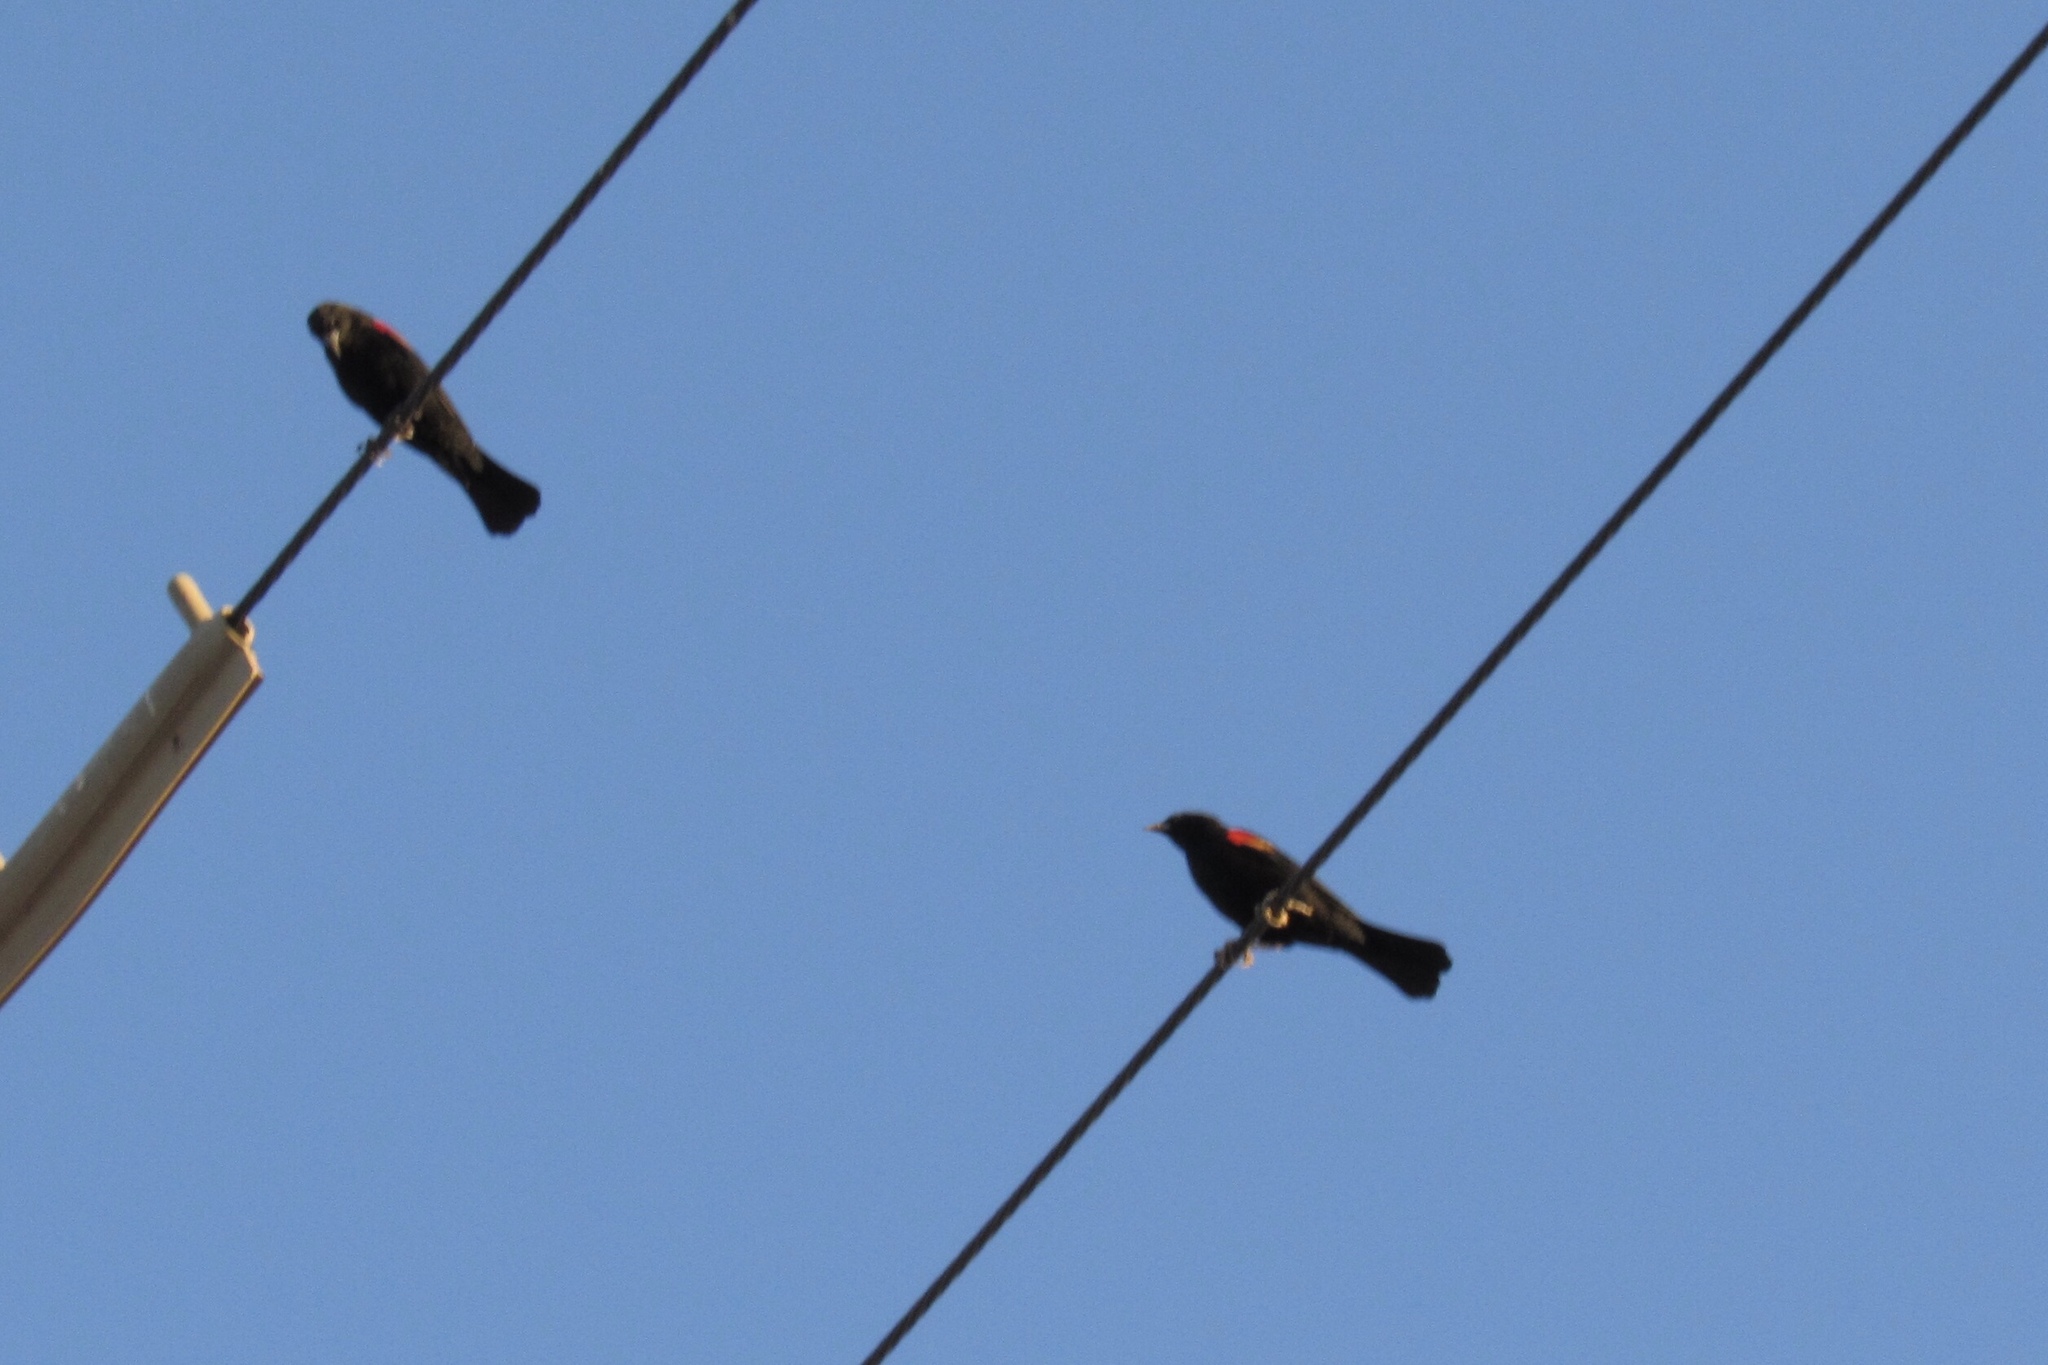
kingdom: Animalia
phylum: Chordata
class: Aves
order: Passeriformes
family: Icteridae
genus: Agelaius
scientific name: Agelaius phoeniceus
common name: Red-winged blackbird
